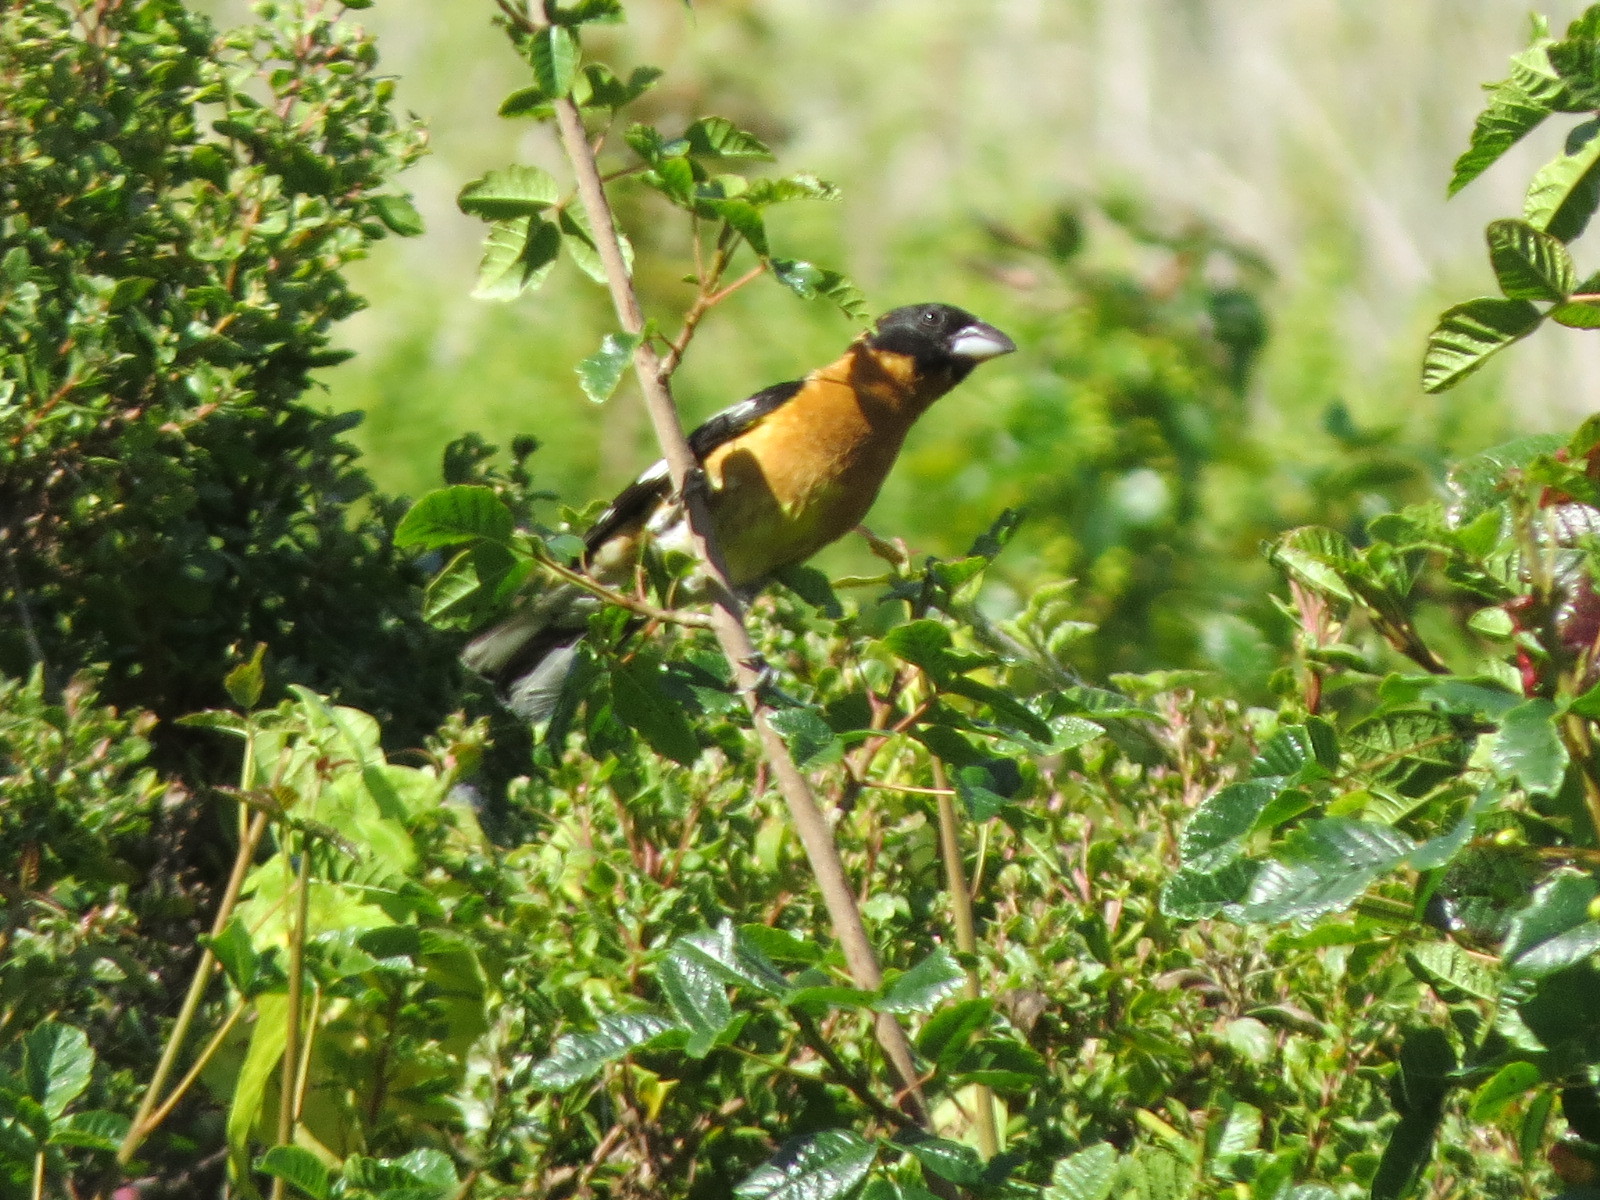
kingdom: Animalia
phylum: Chordata
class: Aves
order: Passeriformes
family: Cardinalidae
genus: Pheucticus
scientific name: Pheucticus melanocephalus
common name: Black-headed grosbeak
